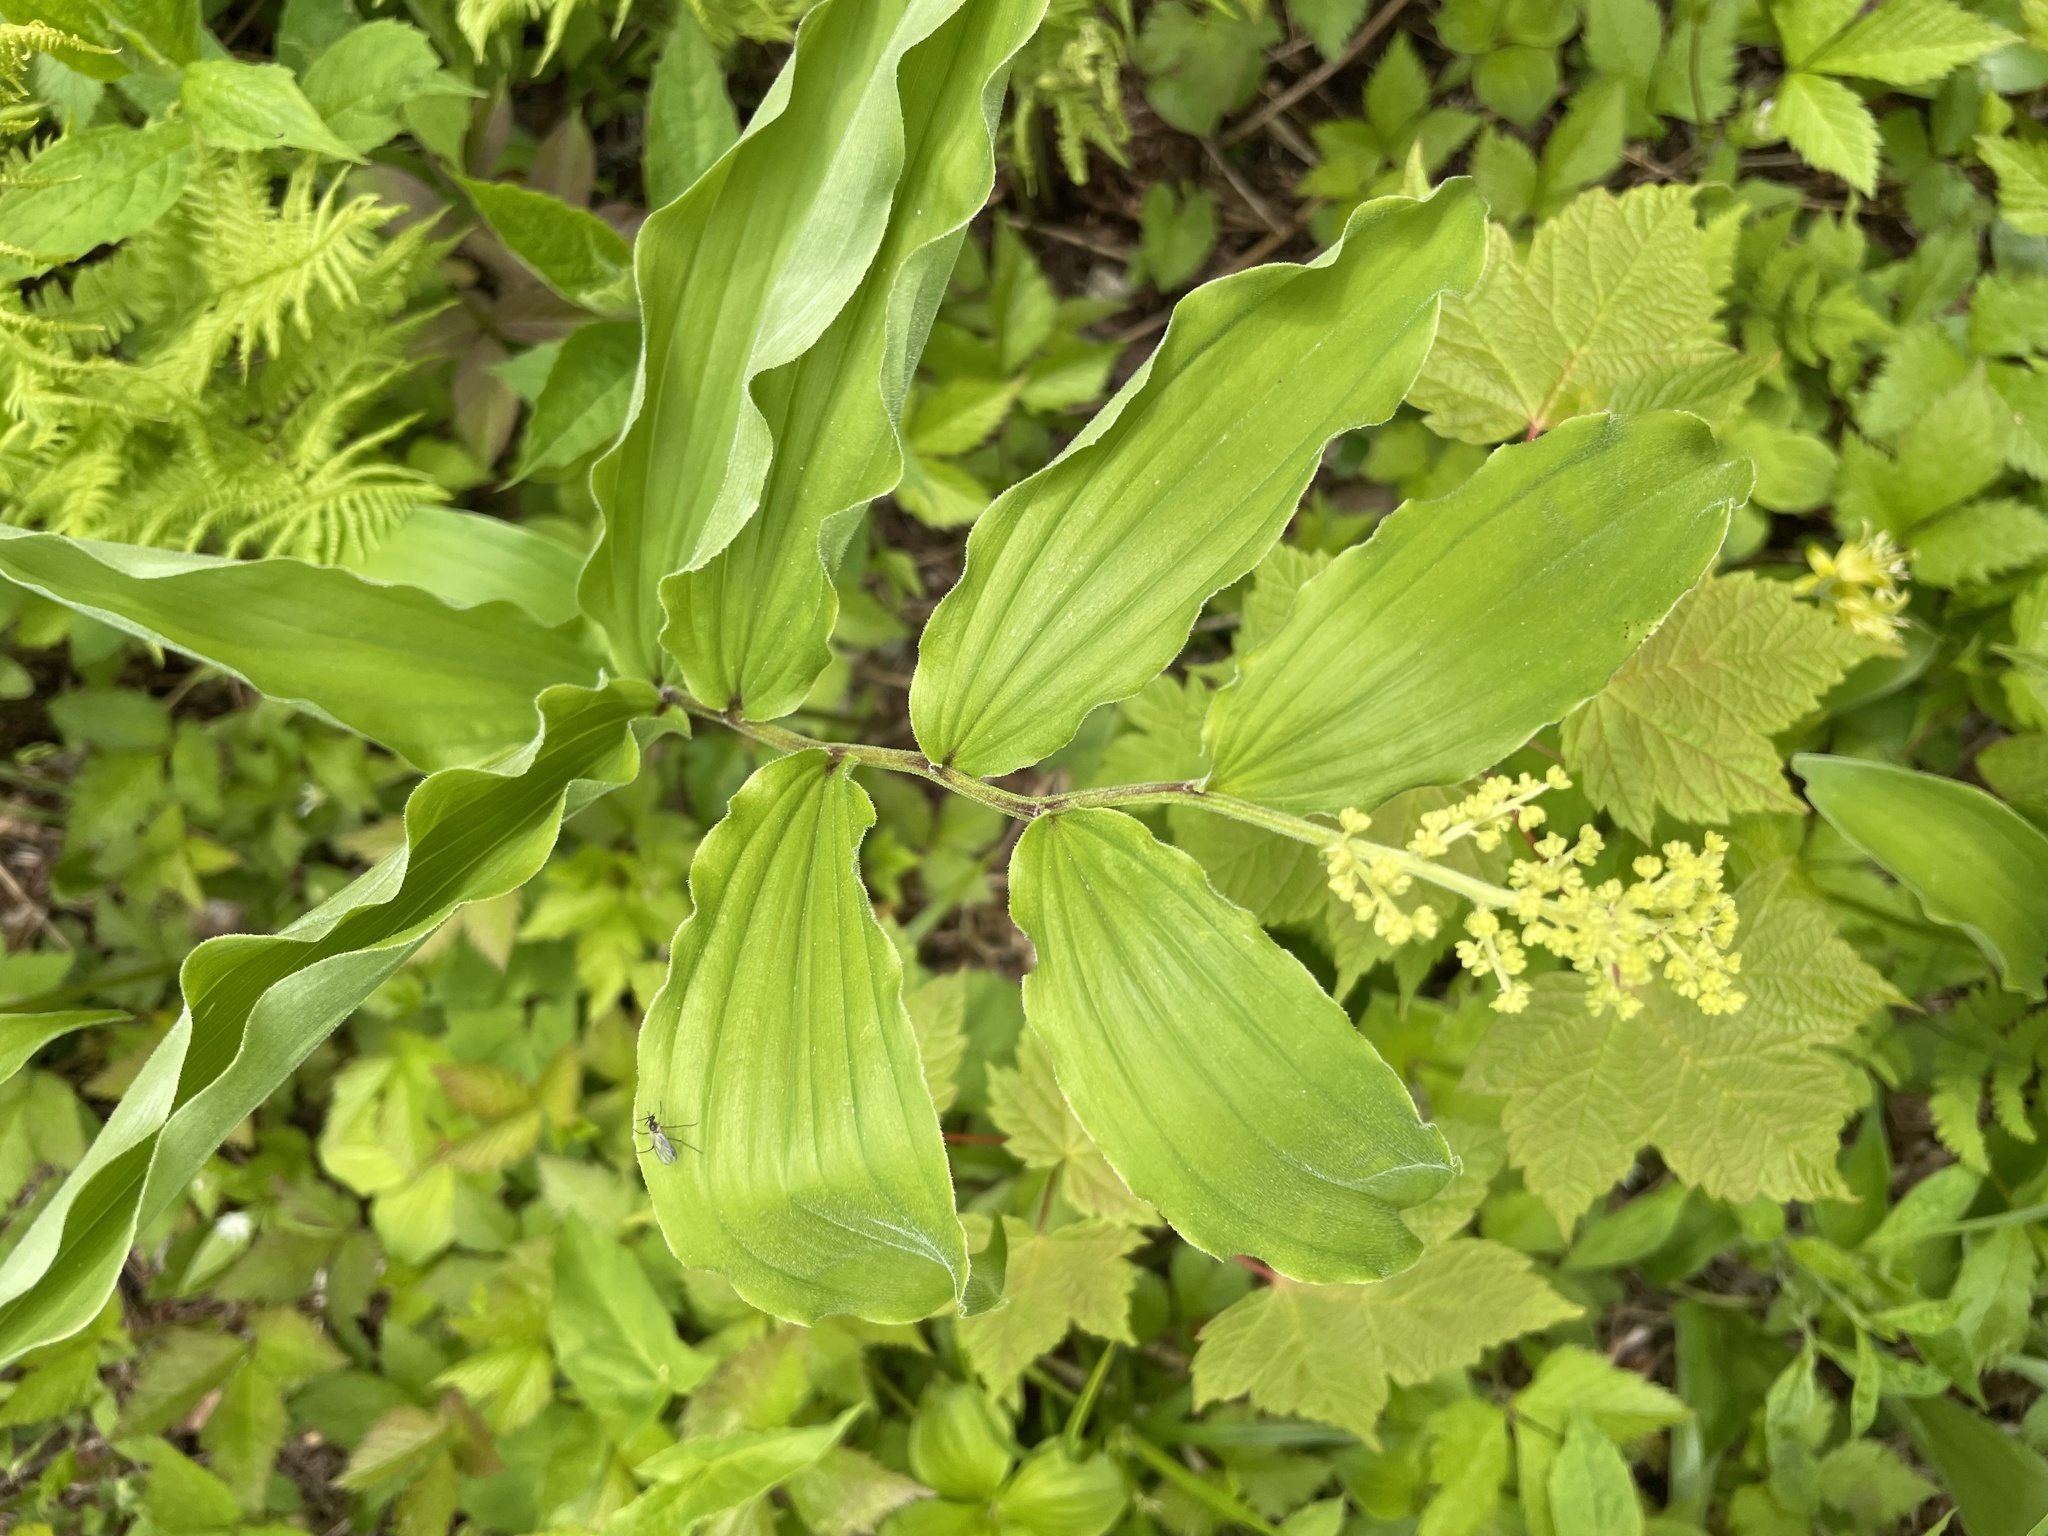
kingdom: Plantae
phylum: Tracheophyta
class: Liliopsida
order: Asparagales
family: Asparagaceae
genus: Maianthemum
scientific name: Maianthemum racemosum
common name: False spikenard
